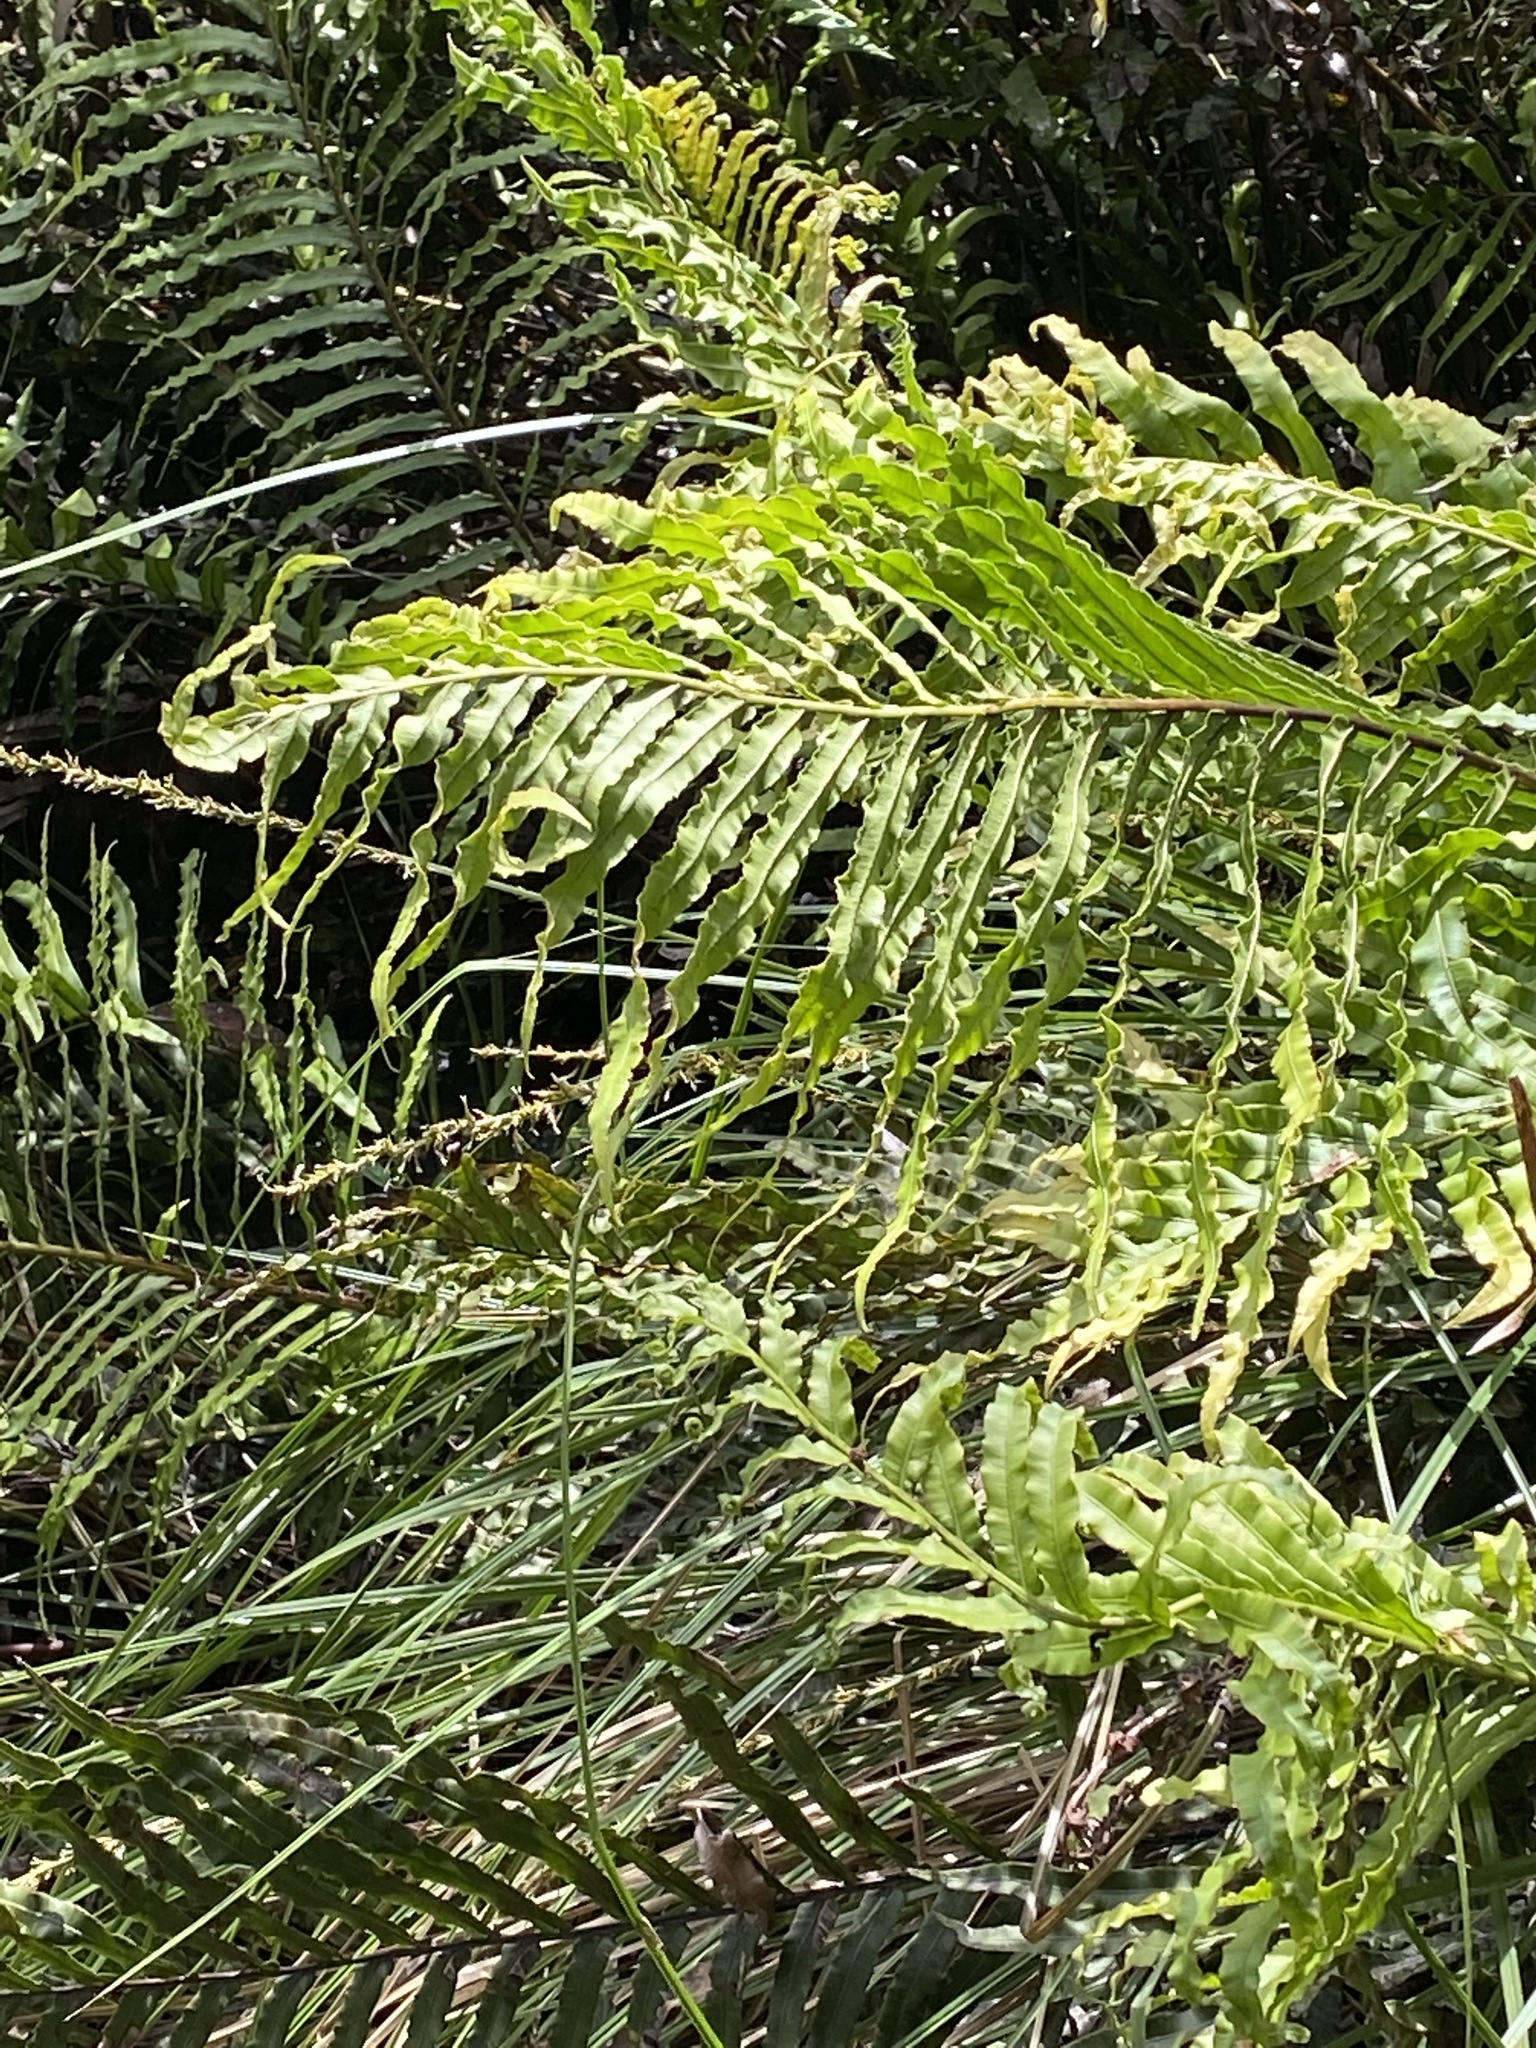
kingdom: Plantae
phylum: Tracheophyta
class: Polypodiopsida
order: Polypodiales
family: Blechnaceae
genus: Oceaniopteris
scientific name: Oceaniopteris cartilaginea
